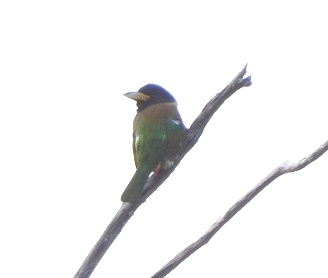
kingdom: Animalia
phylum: Chordata
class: Aves
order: Piciformes
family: Megalaimidae
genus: Psilopogon
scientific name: Psilopogon virens
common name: Great barbet
